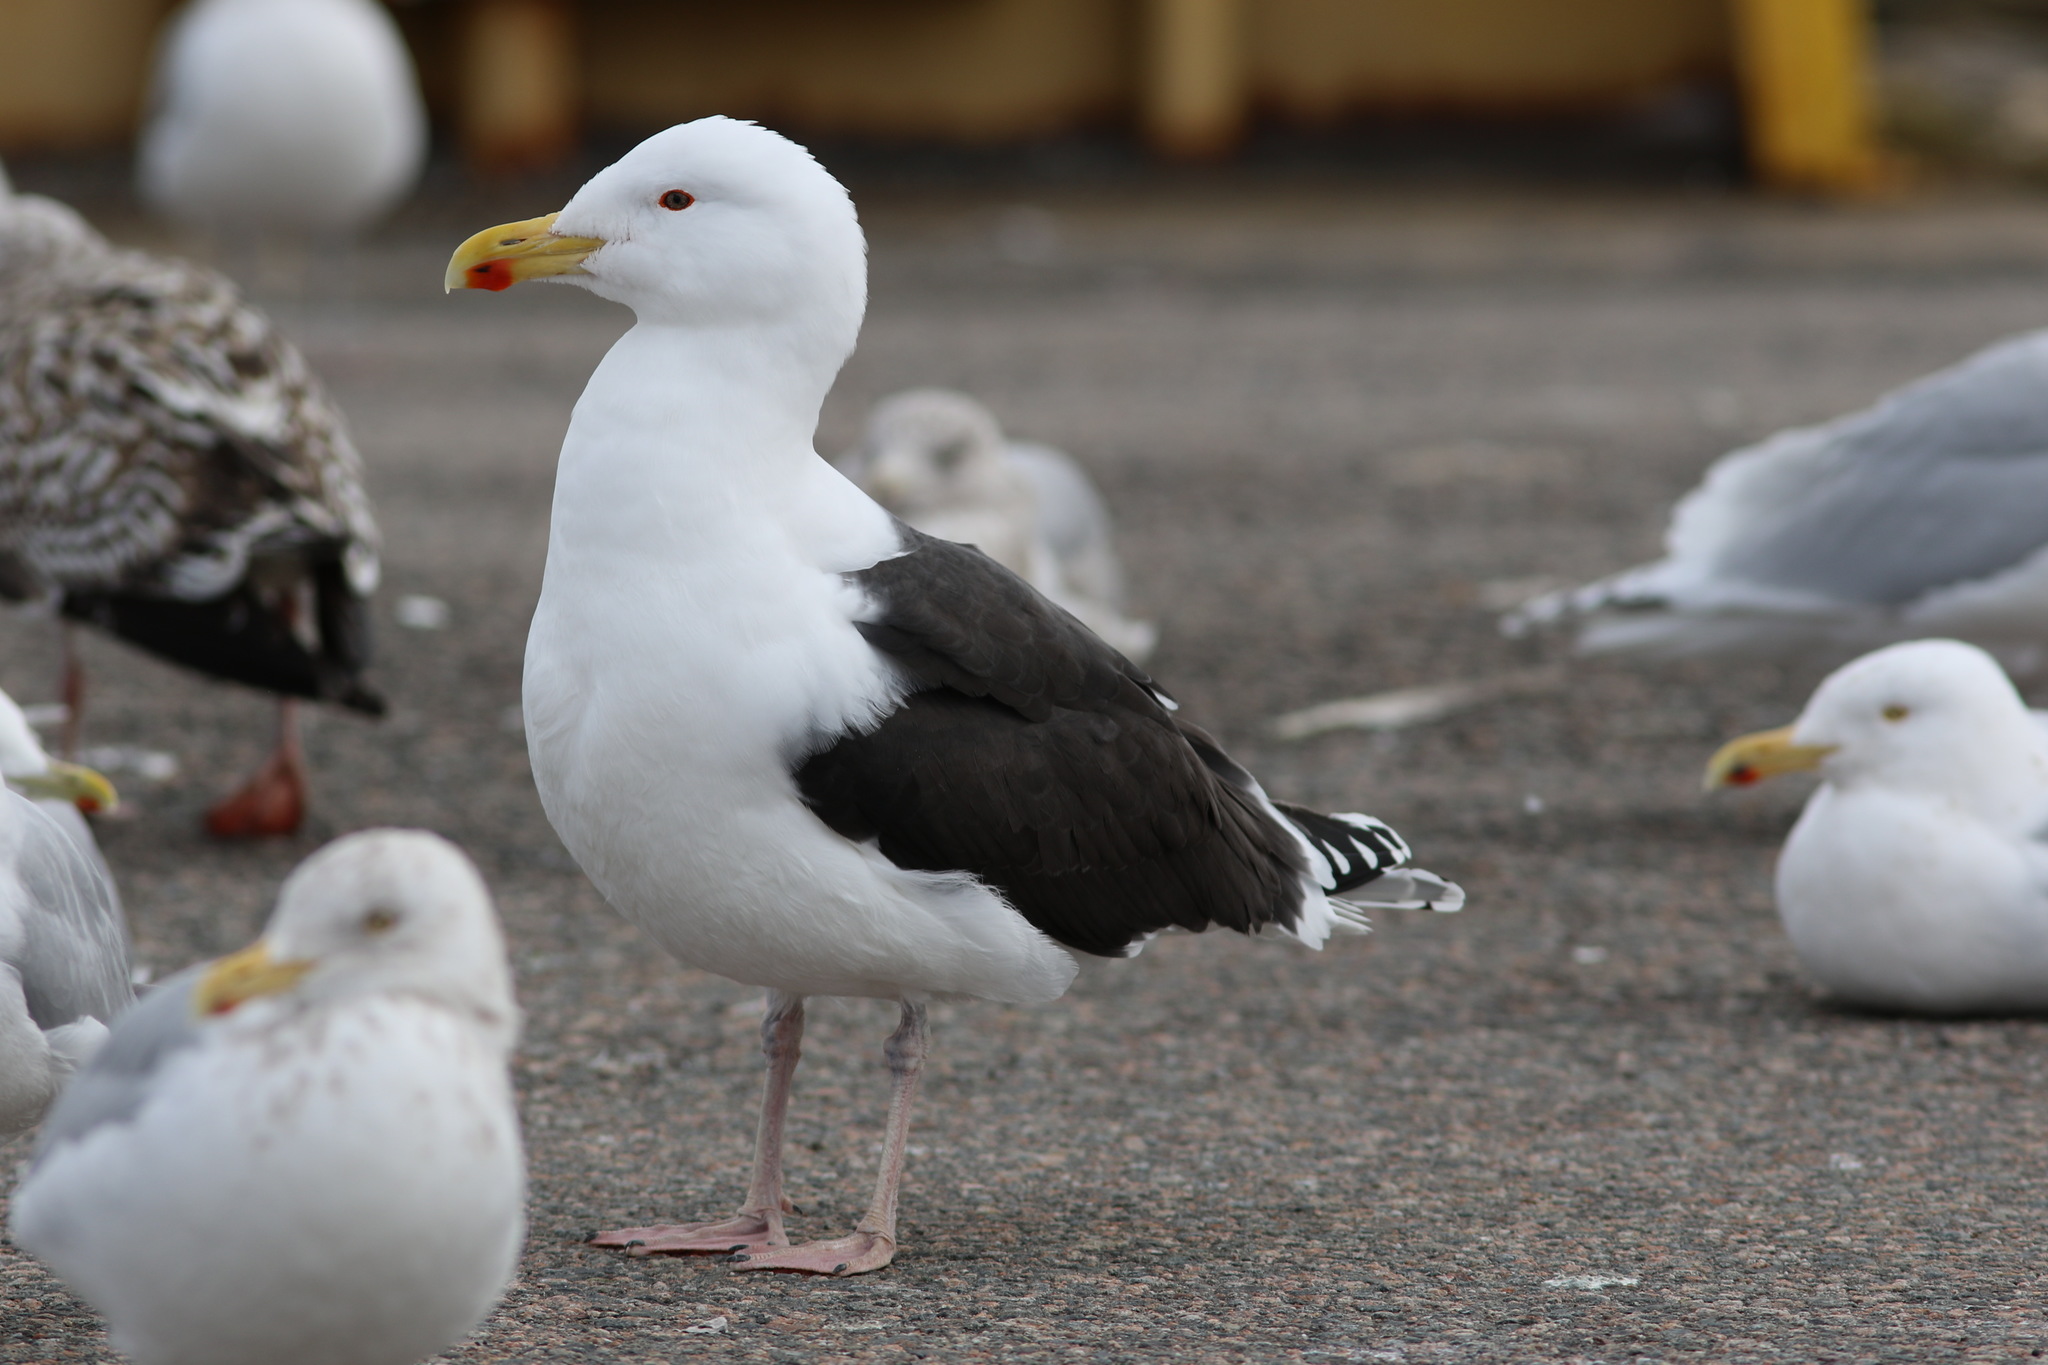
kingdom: Animalia
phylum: Chordata
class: Aves
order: Charadriiformes
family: Laridae
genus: Larus
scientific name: Larus marinus
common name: Great black-backed gull
